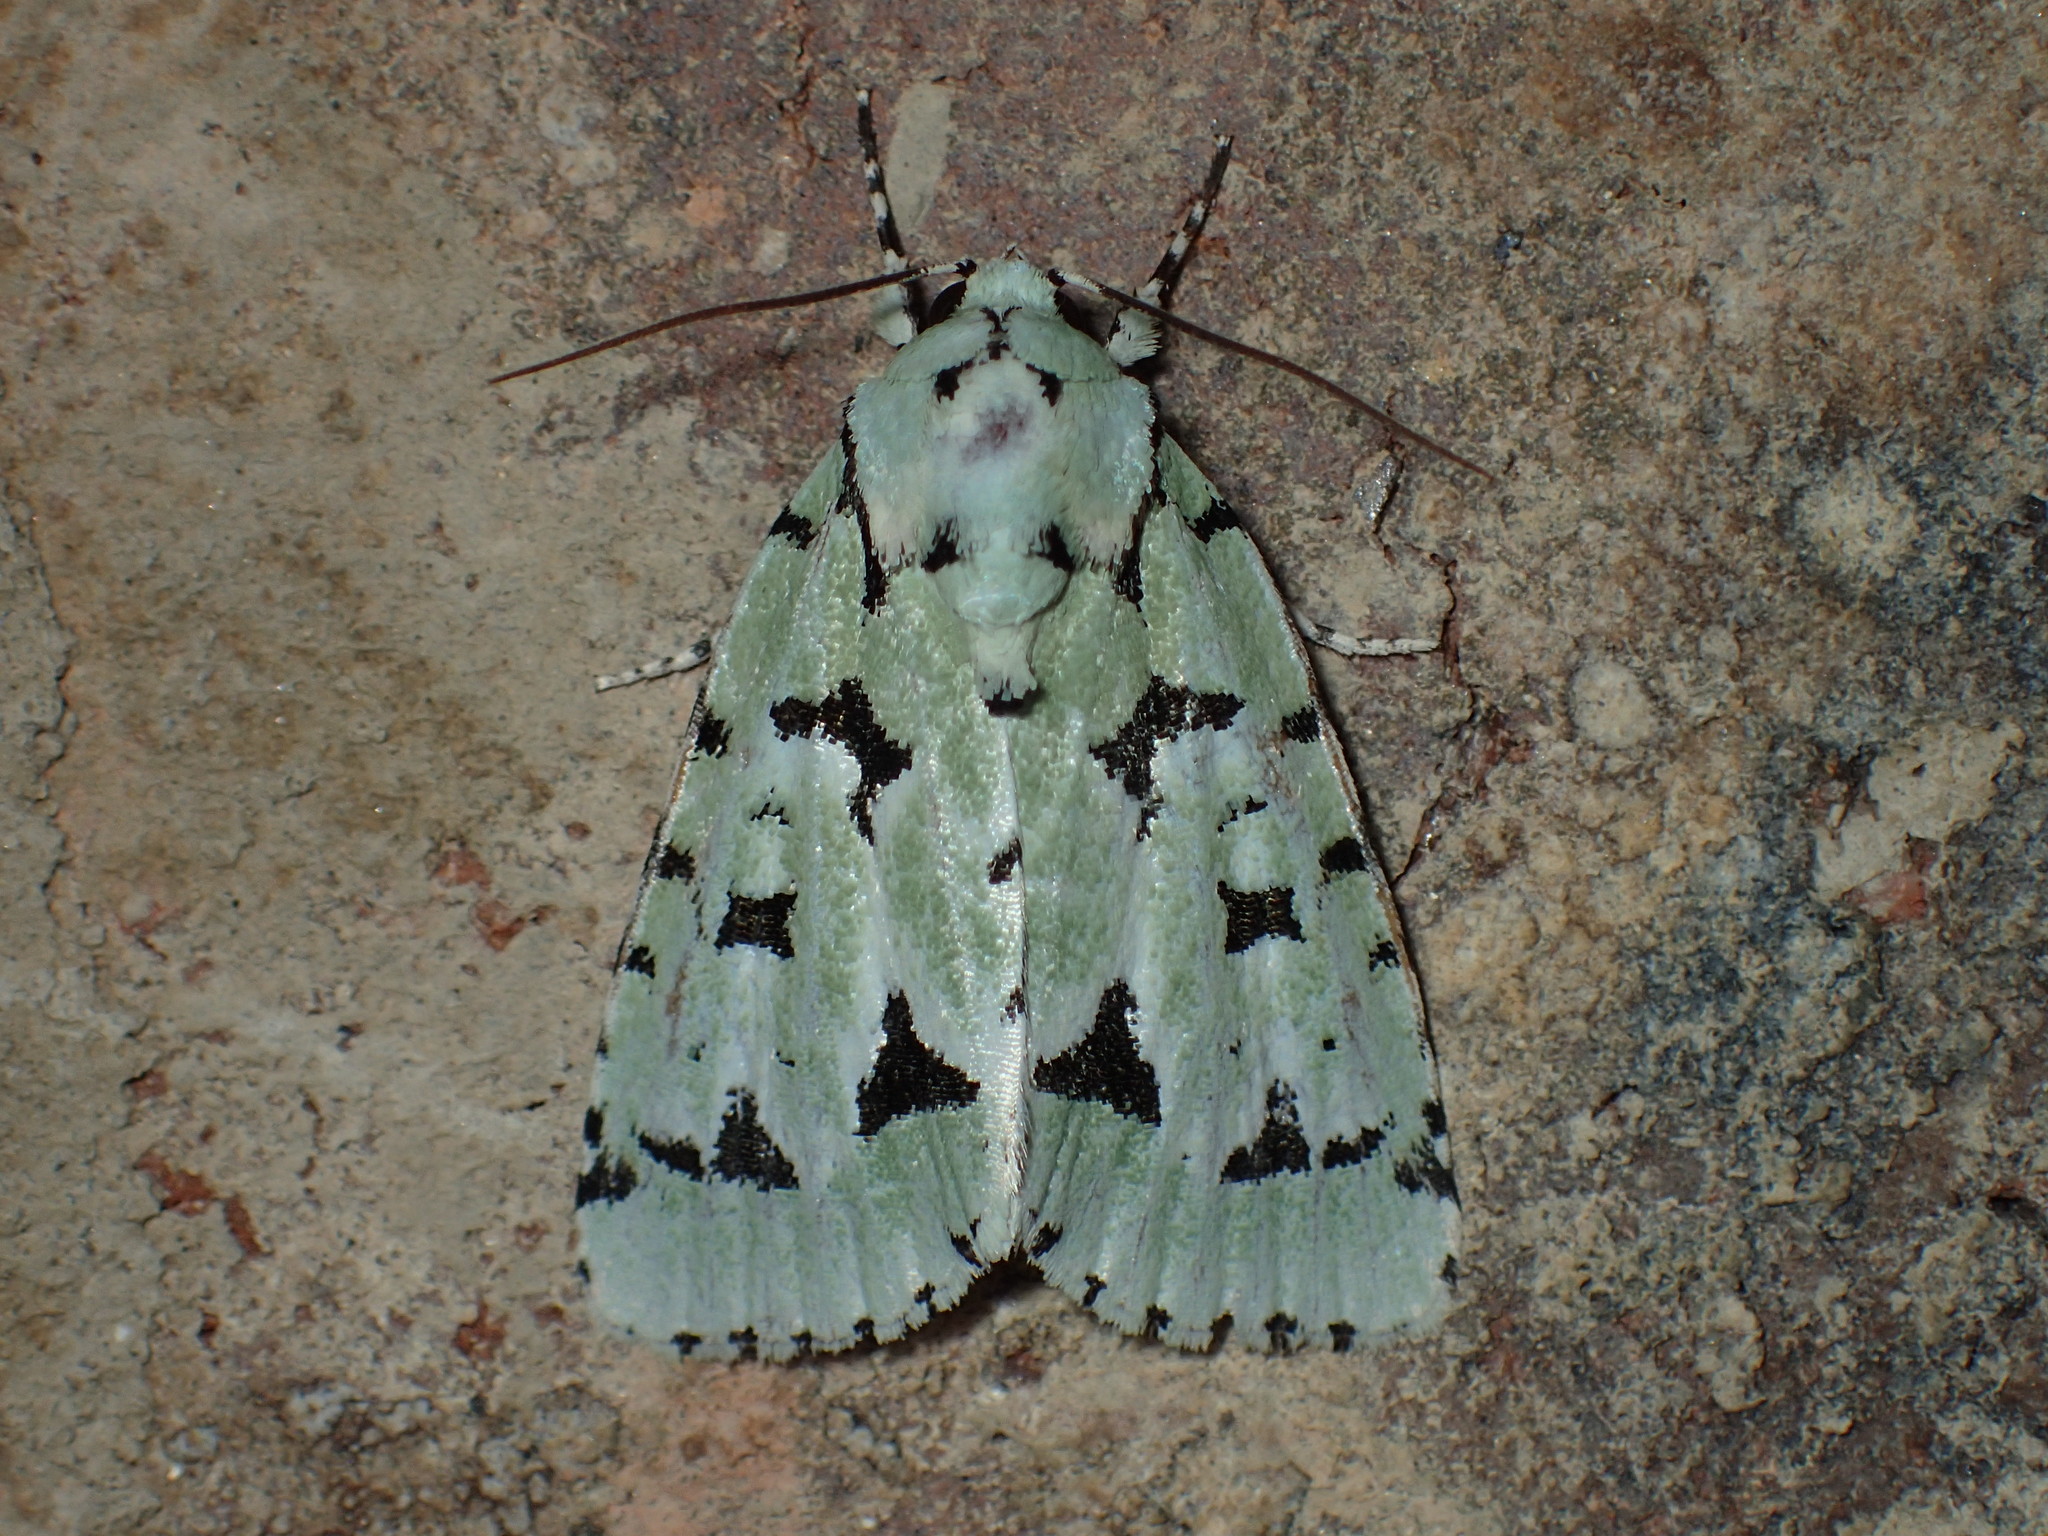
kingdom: Animalia
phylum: Arthropoda
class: Insecta
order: Lepidoptera
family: Noctuidae
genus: Acronicta
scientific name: Acronicta fallax
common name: Green marvel
